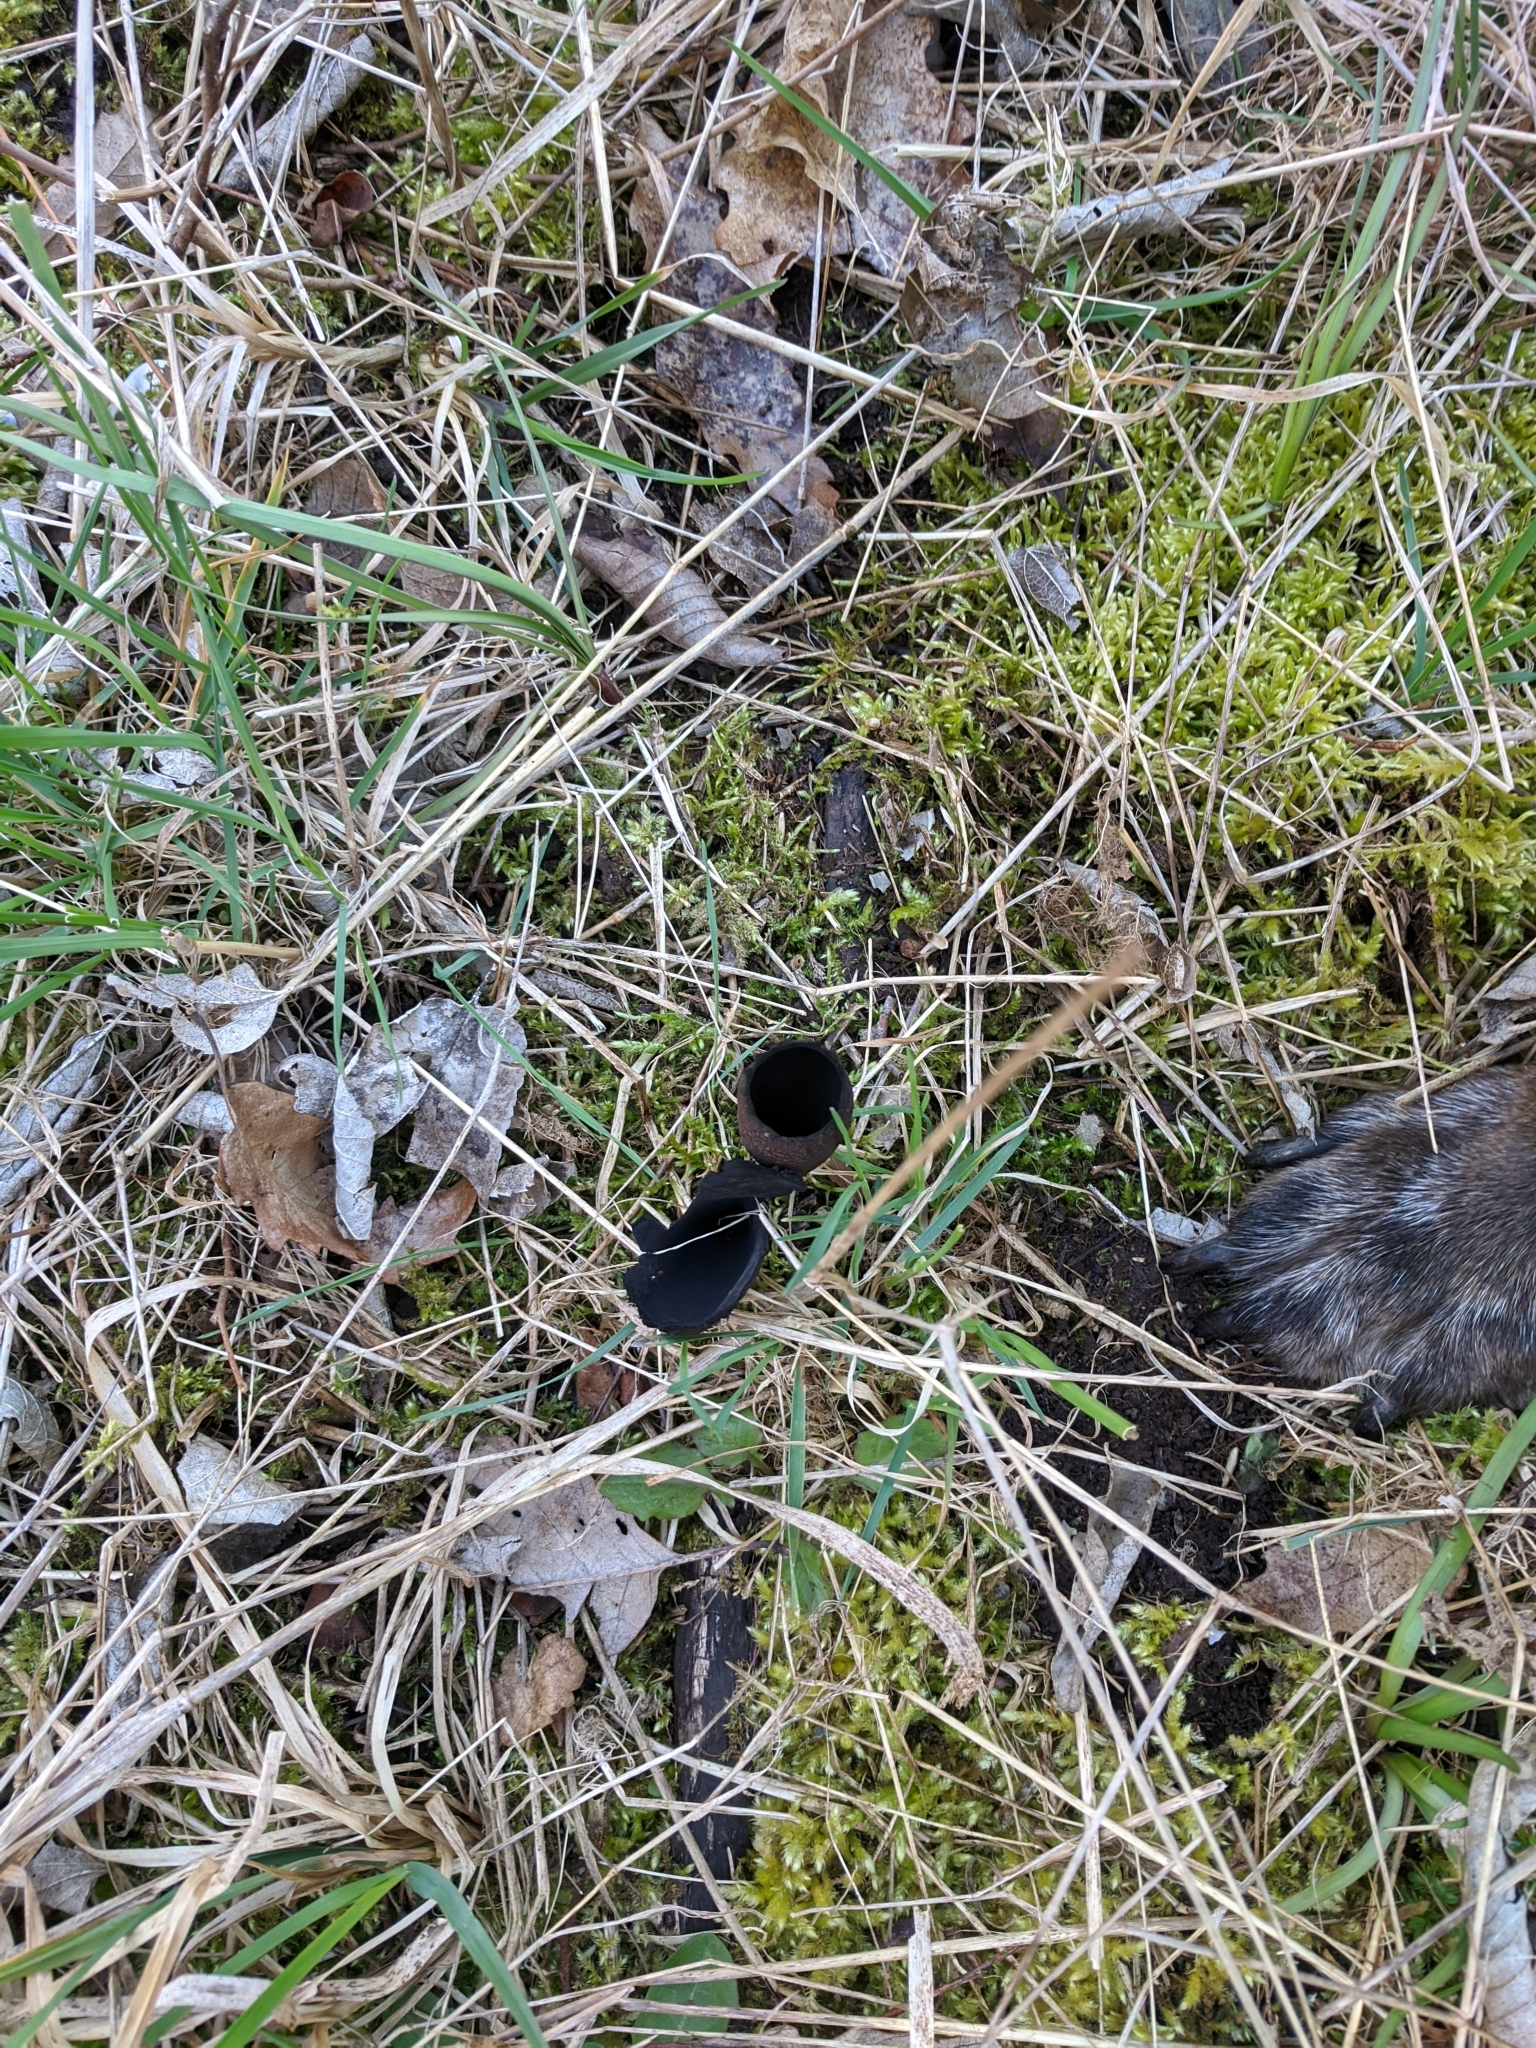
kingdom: Fungi
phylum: Ascomycota
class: Pezizomycetes
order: Pezizales
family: Sarcosomataceae
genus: Urnula
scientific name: Urnula craterium
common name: Devil's urn
